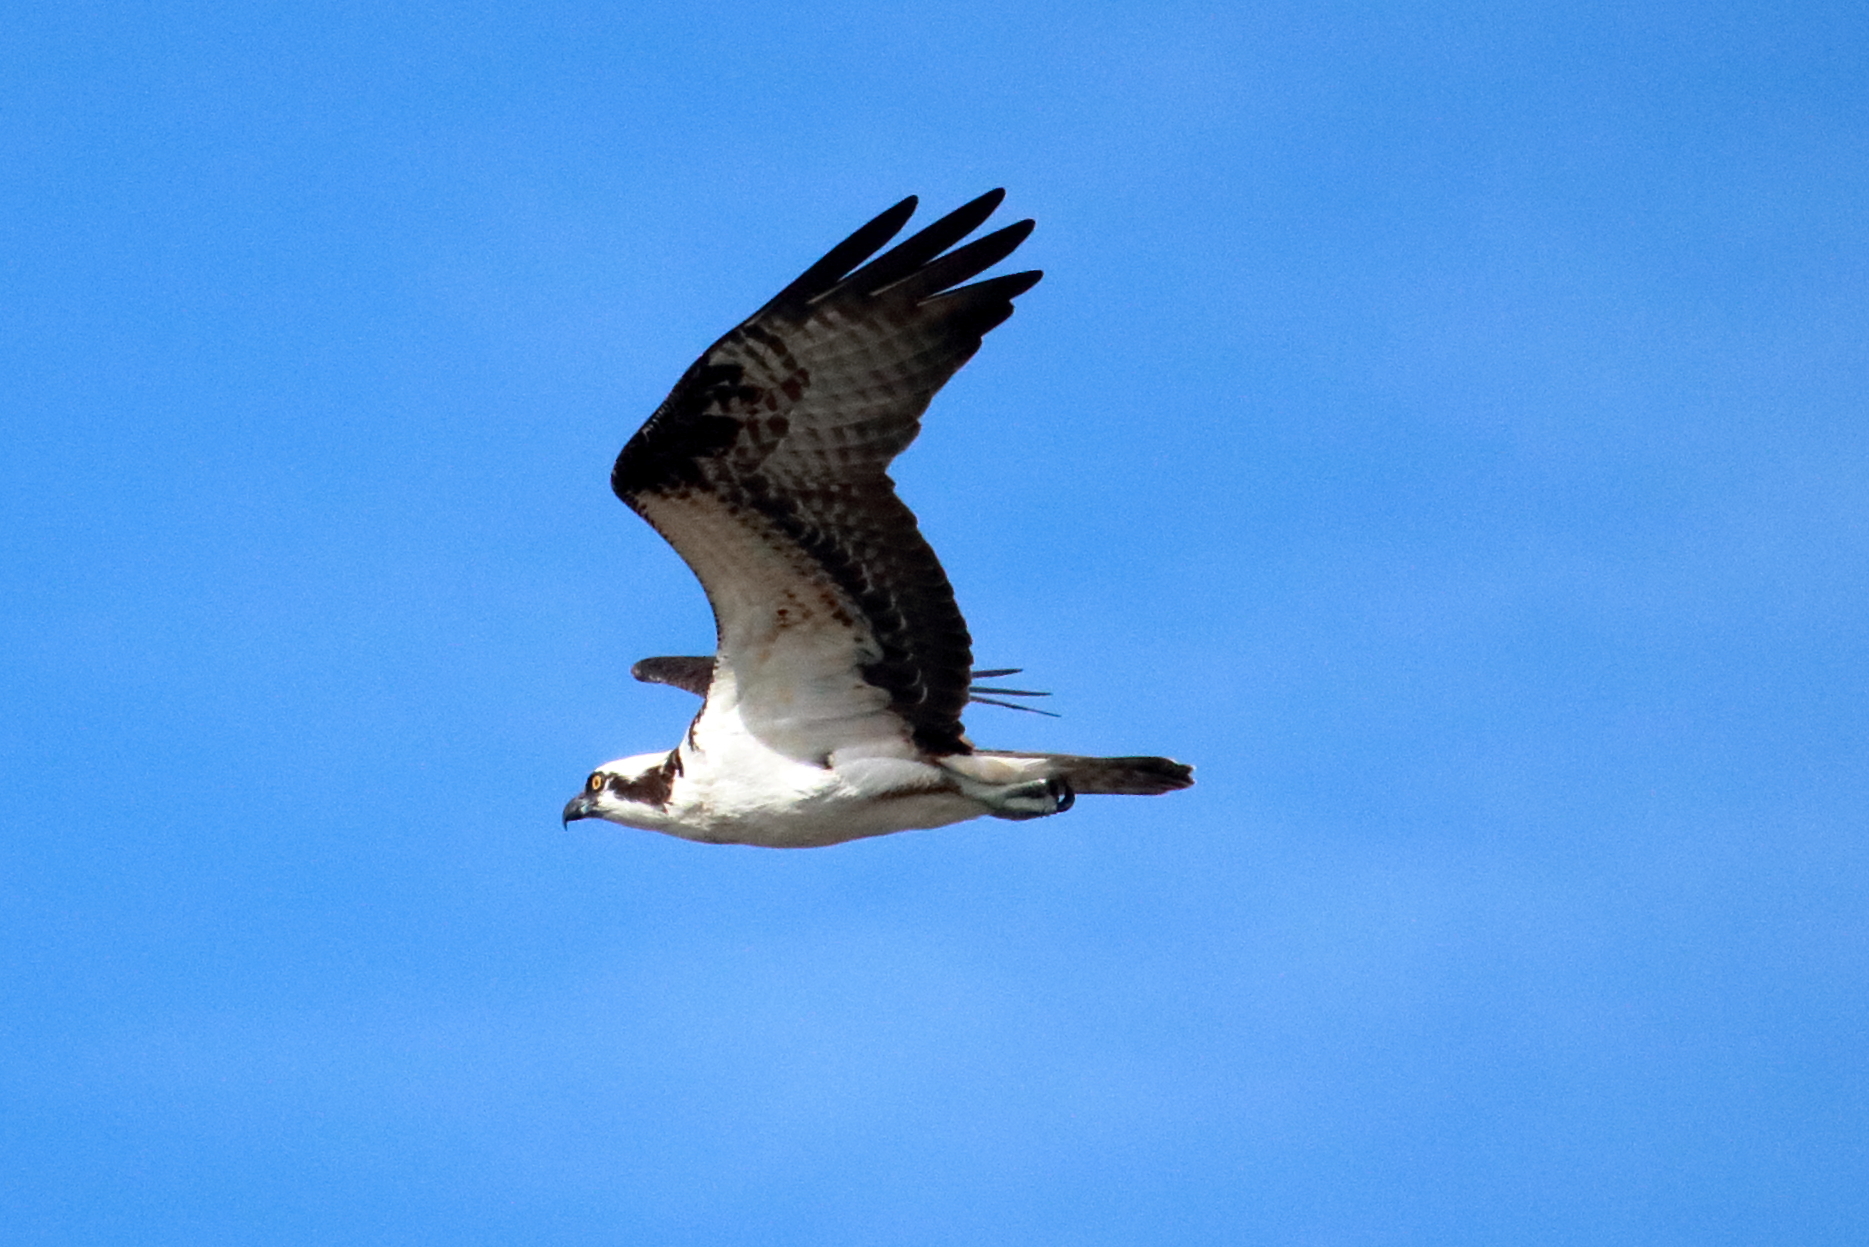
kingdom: Animalia
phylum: Chordata
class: Aves
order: Accipitriformes
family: Pandionidae
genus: Pandion
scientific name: Pandion haliaetus
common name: Osprey
